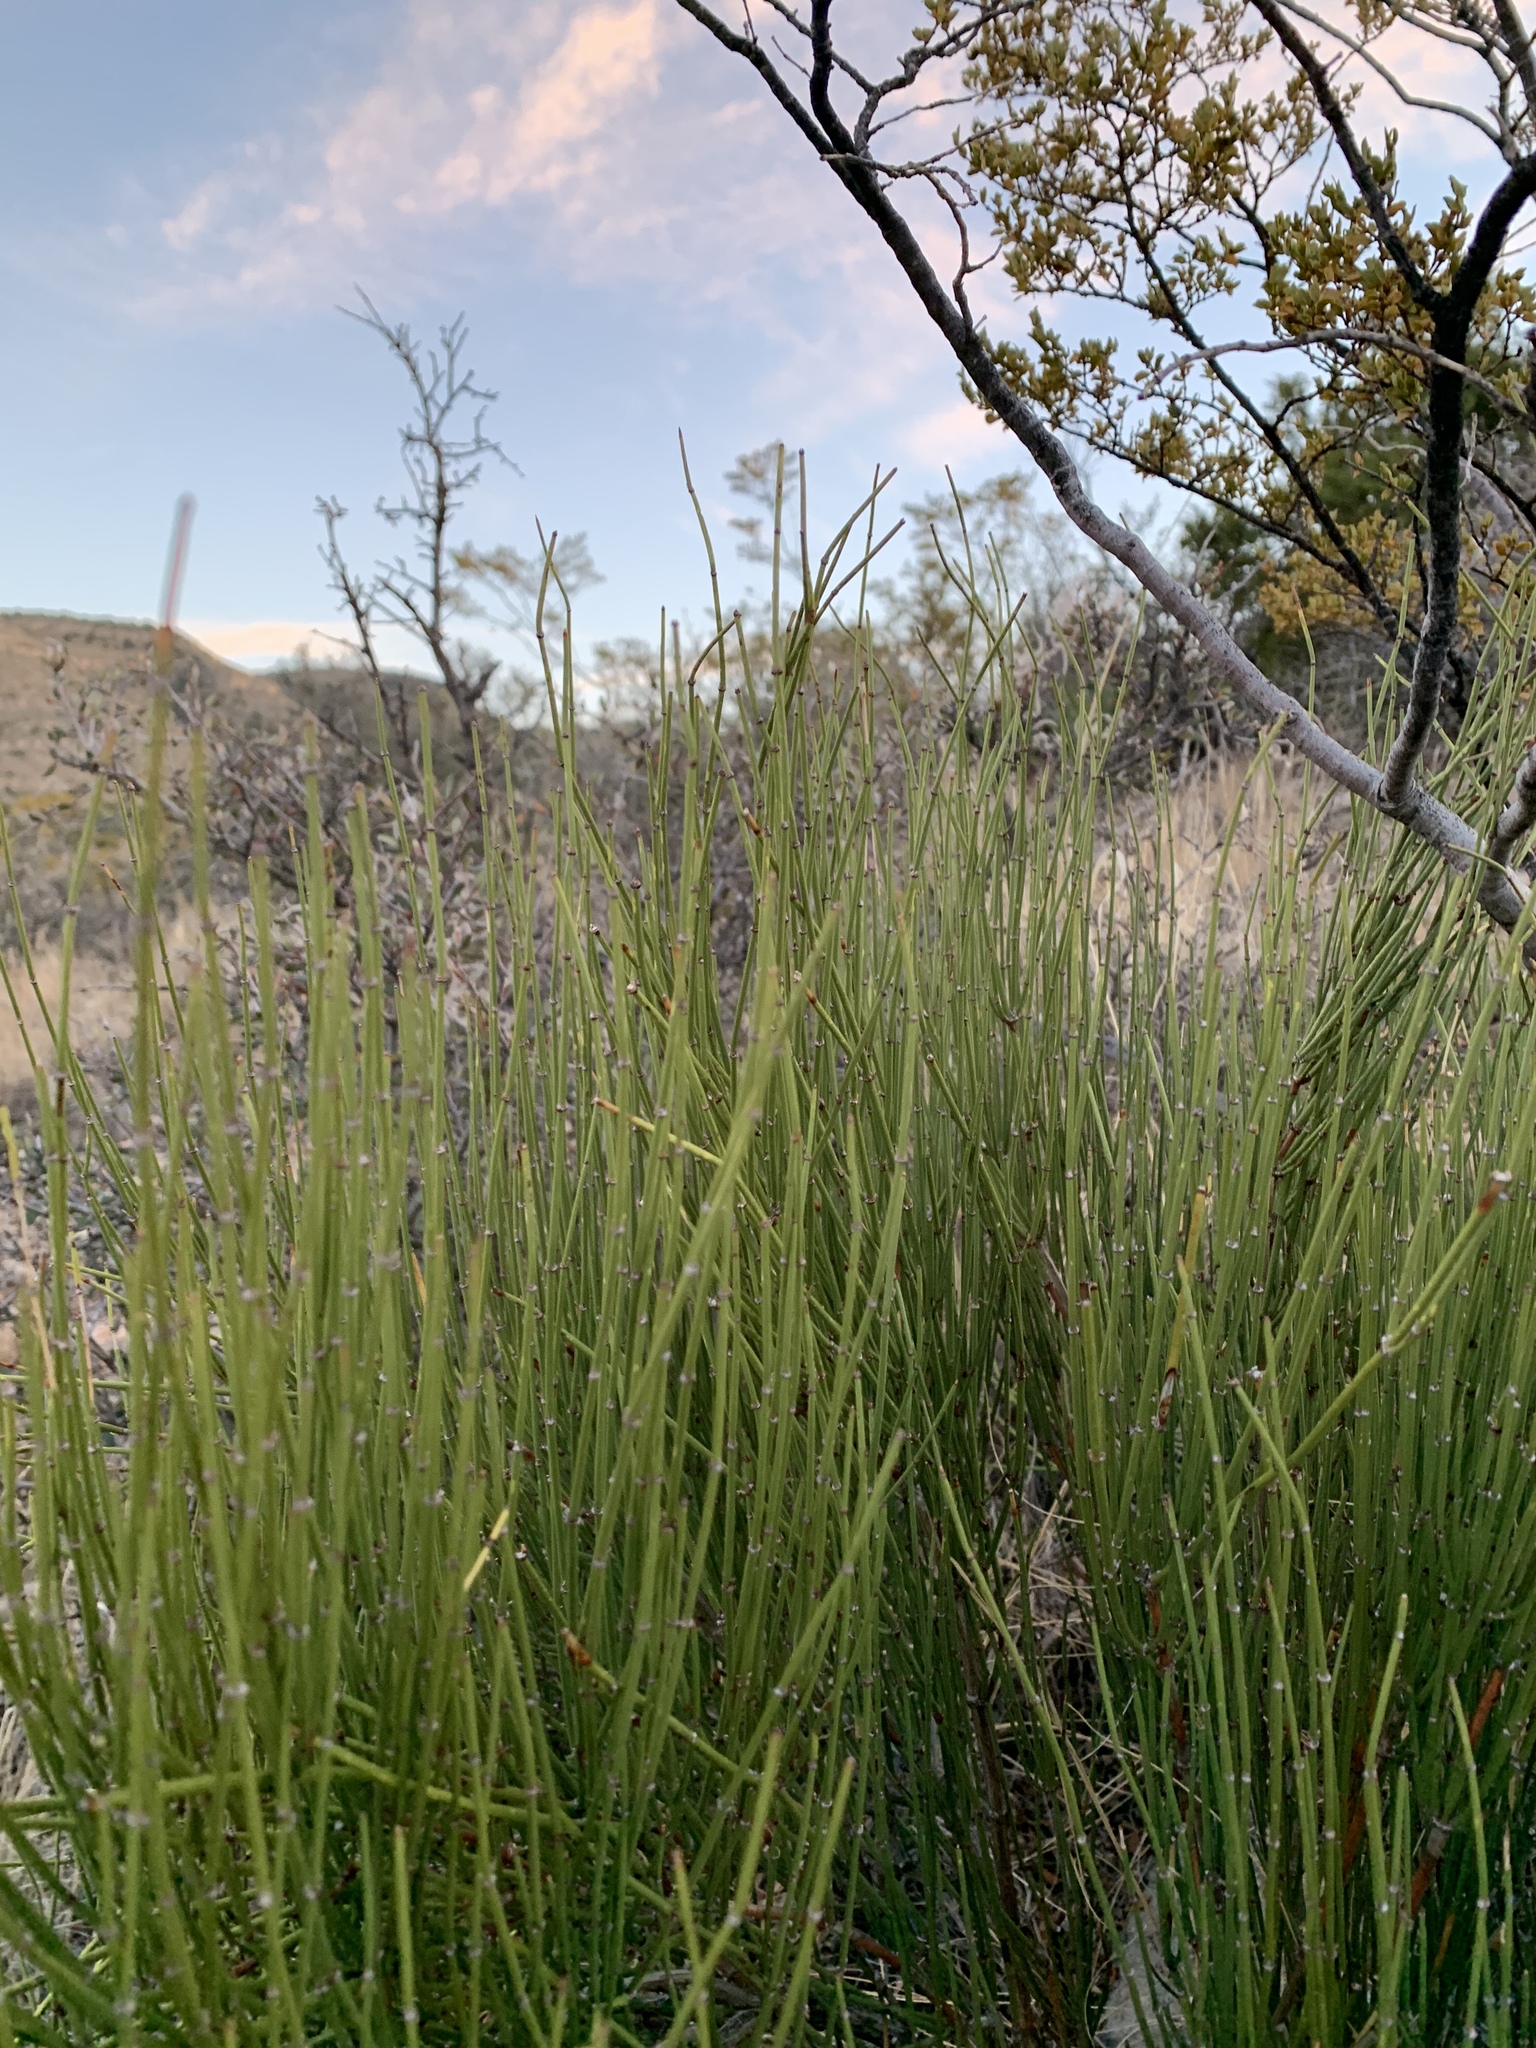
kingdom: Plantae
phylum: Tracheophyta
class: Gnetopsida
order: Ephedrales
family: Ephedraceae
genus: Ephedra
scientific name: Ephedra viridis
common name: Green ephedra
